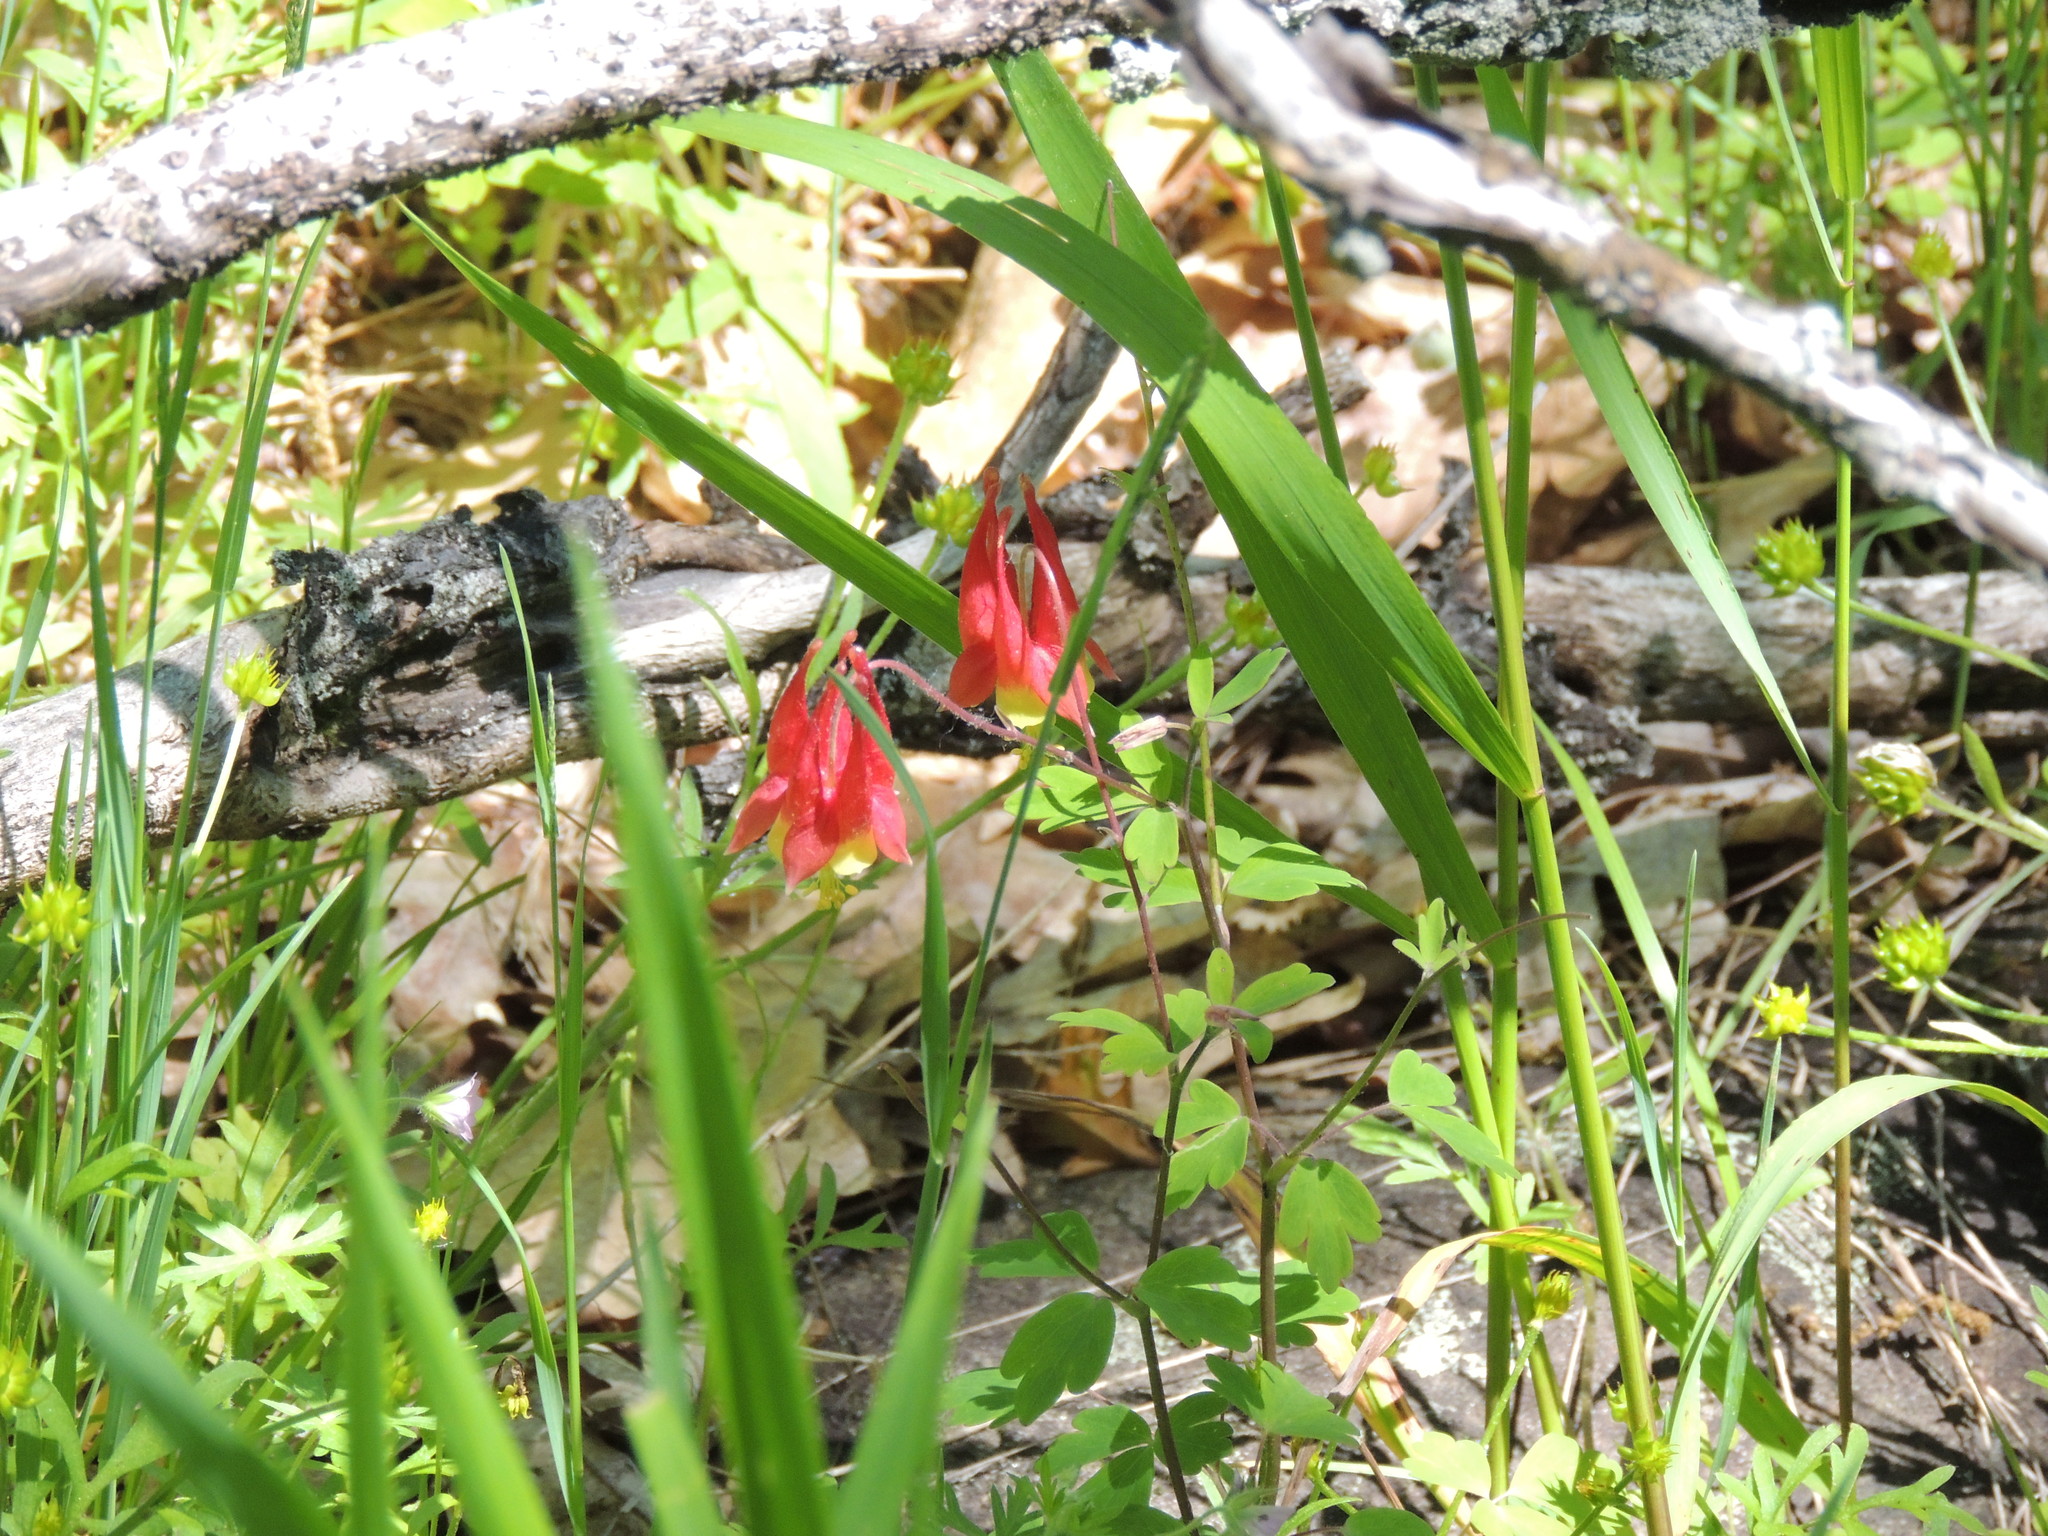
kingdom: Plantae
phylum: Tracheophyta
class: Magnoliopsida
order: Ranunculales
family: Ranunculaceae
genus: Aquilegia
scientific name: Aquilegia canadensis
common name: American columbine
